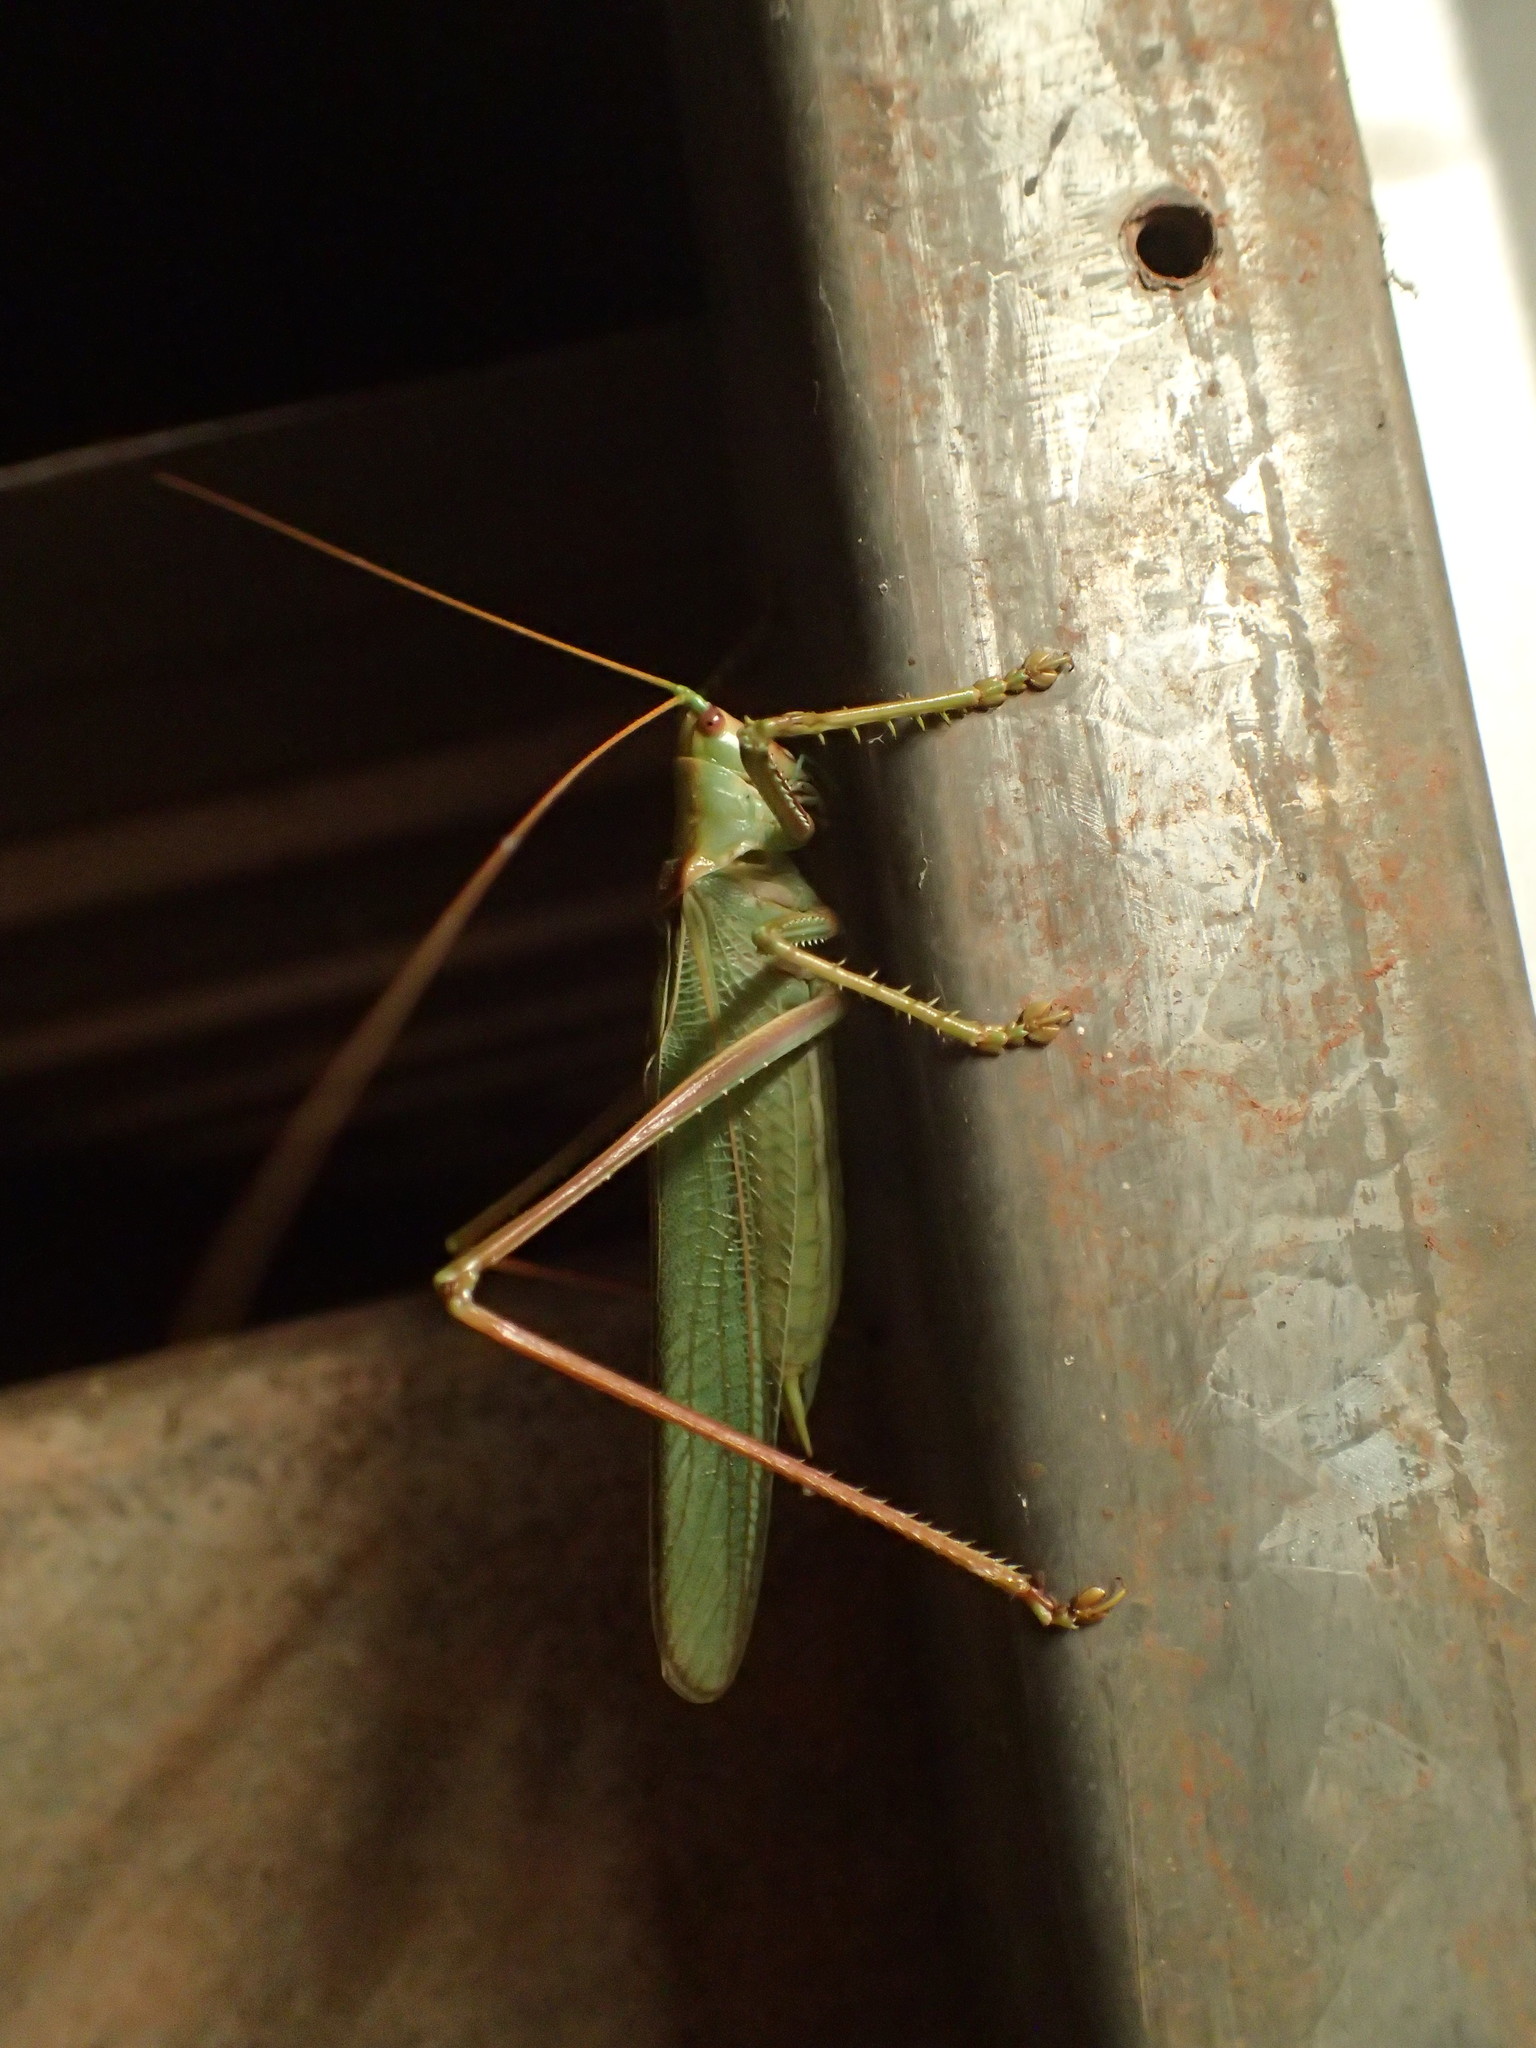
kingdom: Animalia
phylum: Arthropoda
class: Insecta
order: Orthoptera
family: Tettigoniidae
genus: Yullandria
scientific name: Yullandria lawagimana
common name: Glistening yullandria
